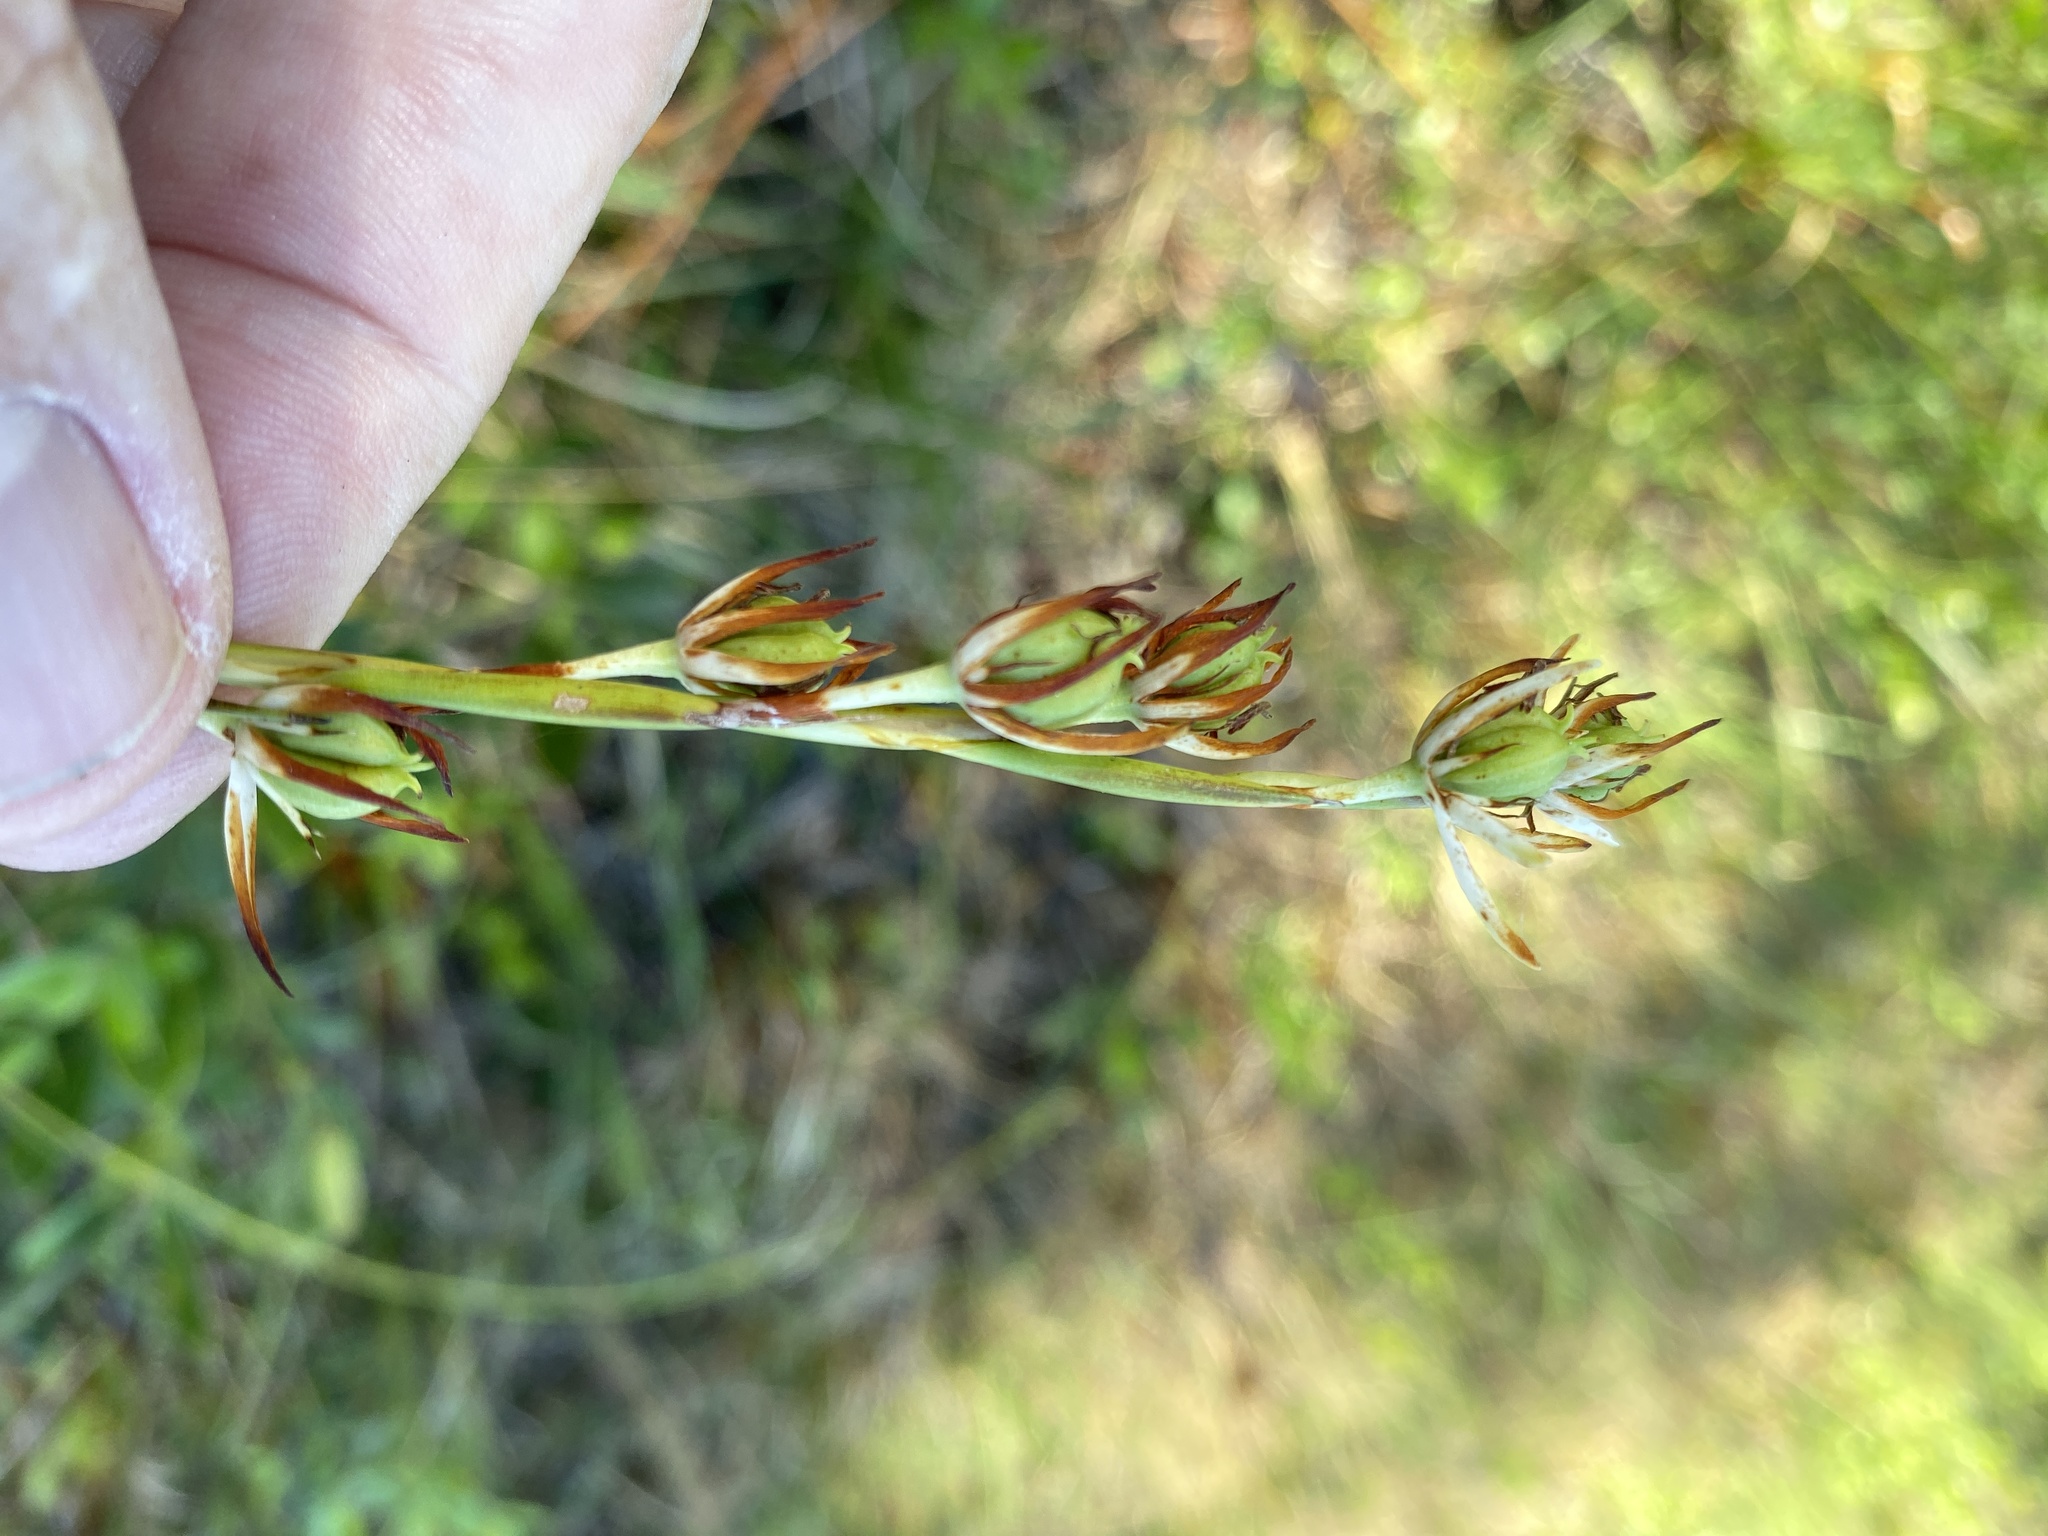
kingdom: Plantae
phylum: Tracheophyta
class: Liliopsida
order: Alismatales
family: Tofieldiaceae
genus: Pleea
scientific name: Pleea tenuifolia
